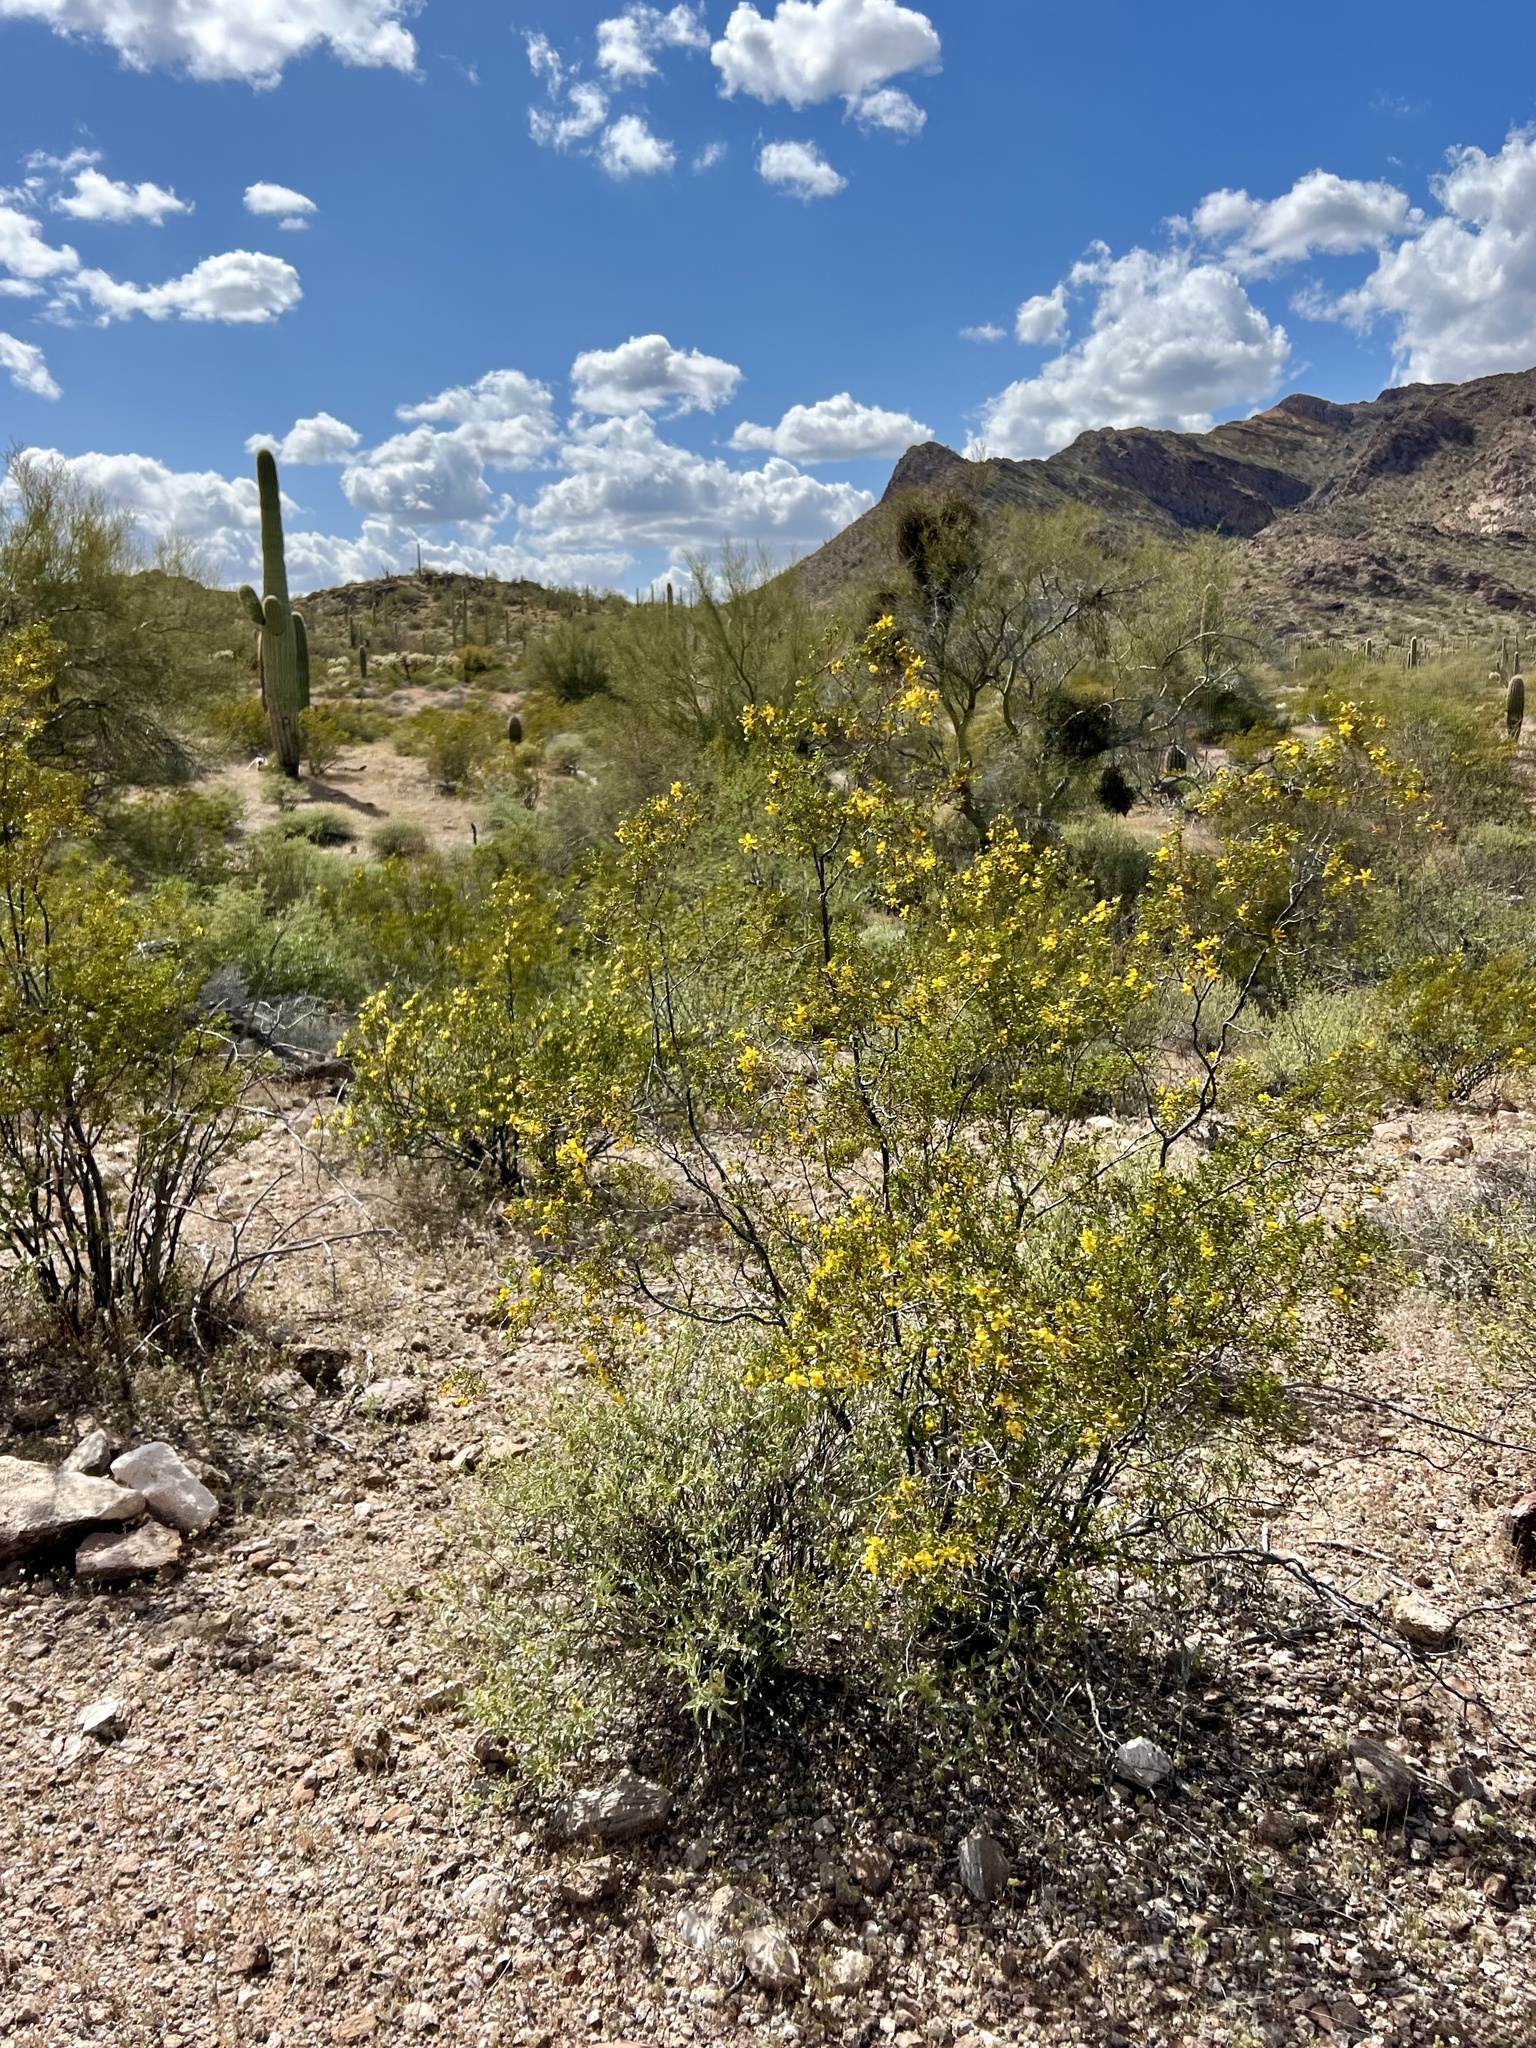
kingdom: Plantae
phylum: Tracheophyta
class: Magnoliopsida
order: Zygophyllales
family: Zygophyllaceae
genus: Larrea
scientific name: Larrea tridentata
